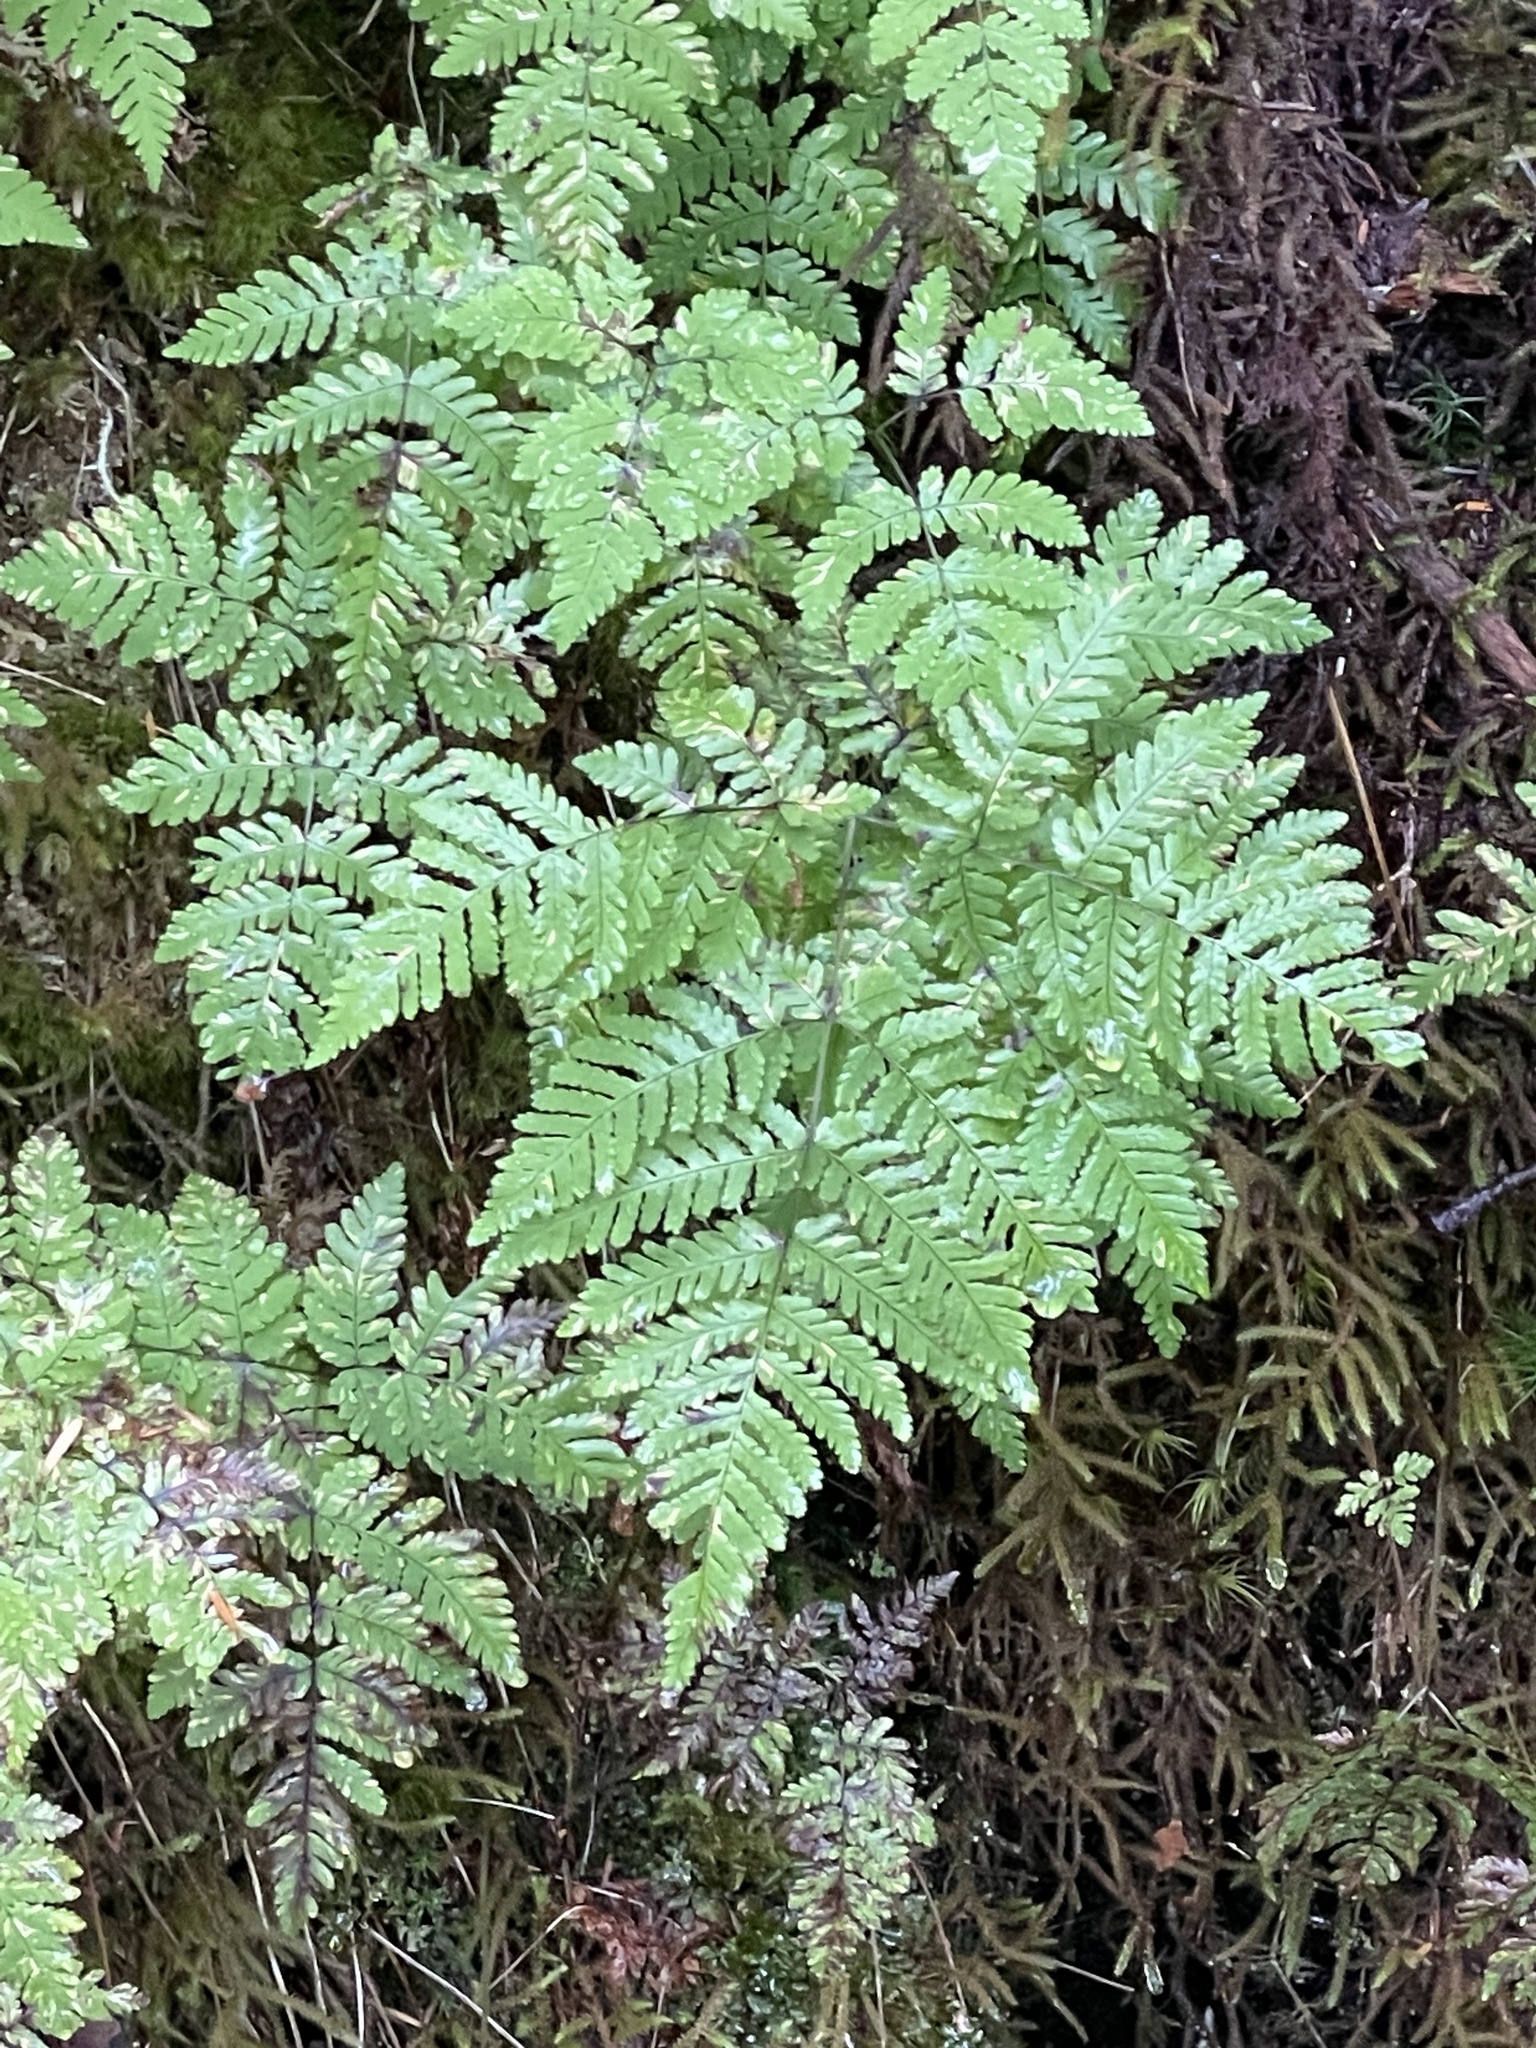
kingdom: Plantae
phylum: Tracheophyta
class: Polypodiopsida
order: Polypodiales
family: Cystopteridaceae
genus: Gymnocarpium
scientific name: Gymnocarpium disjunctum
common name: Western oak fern
